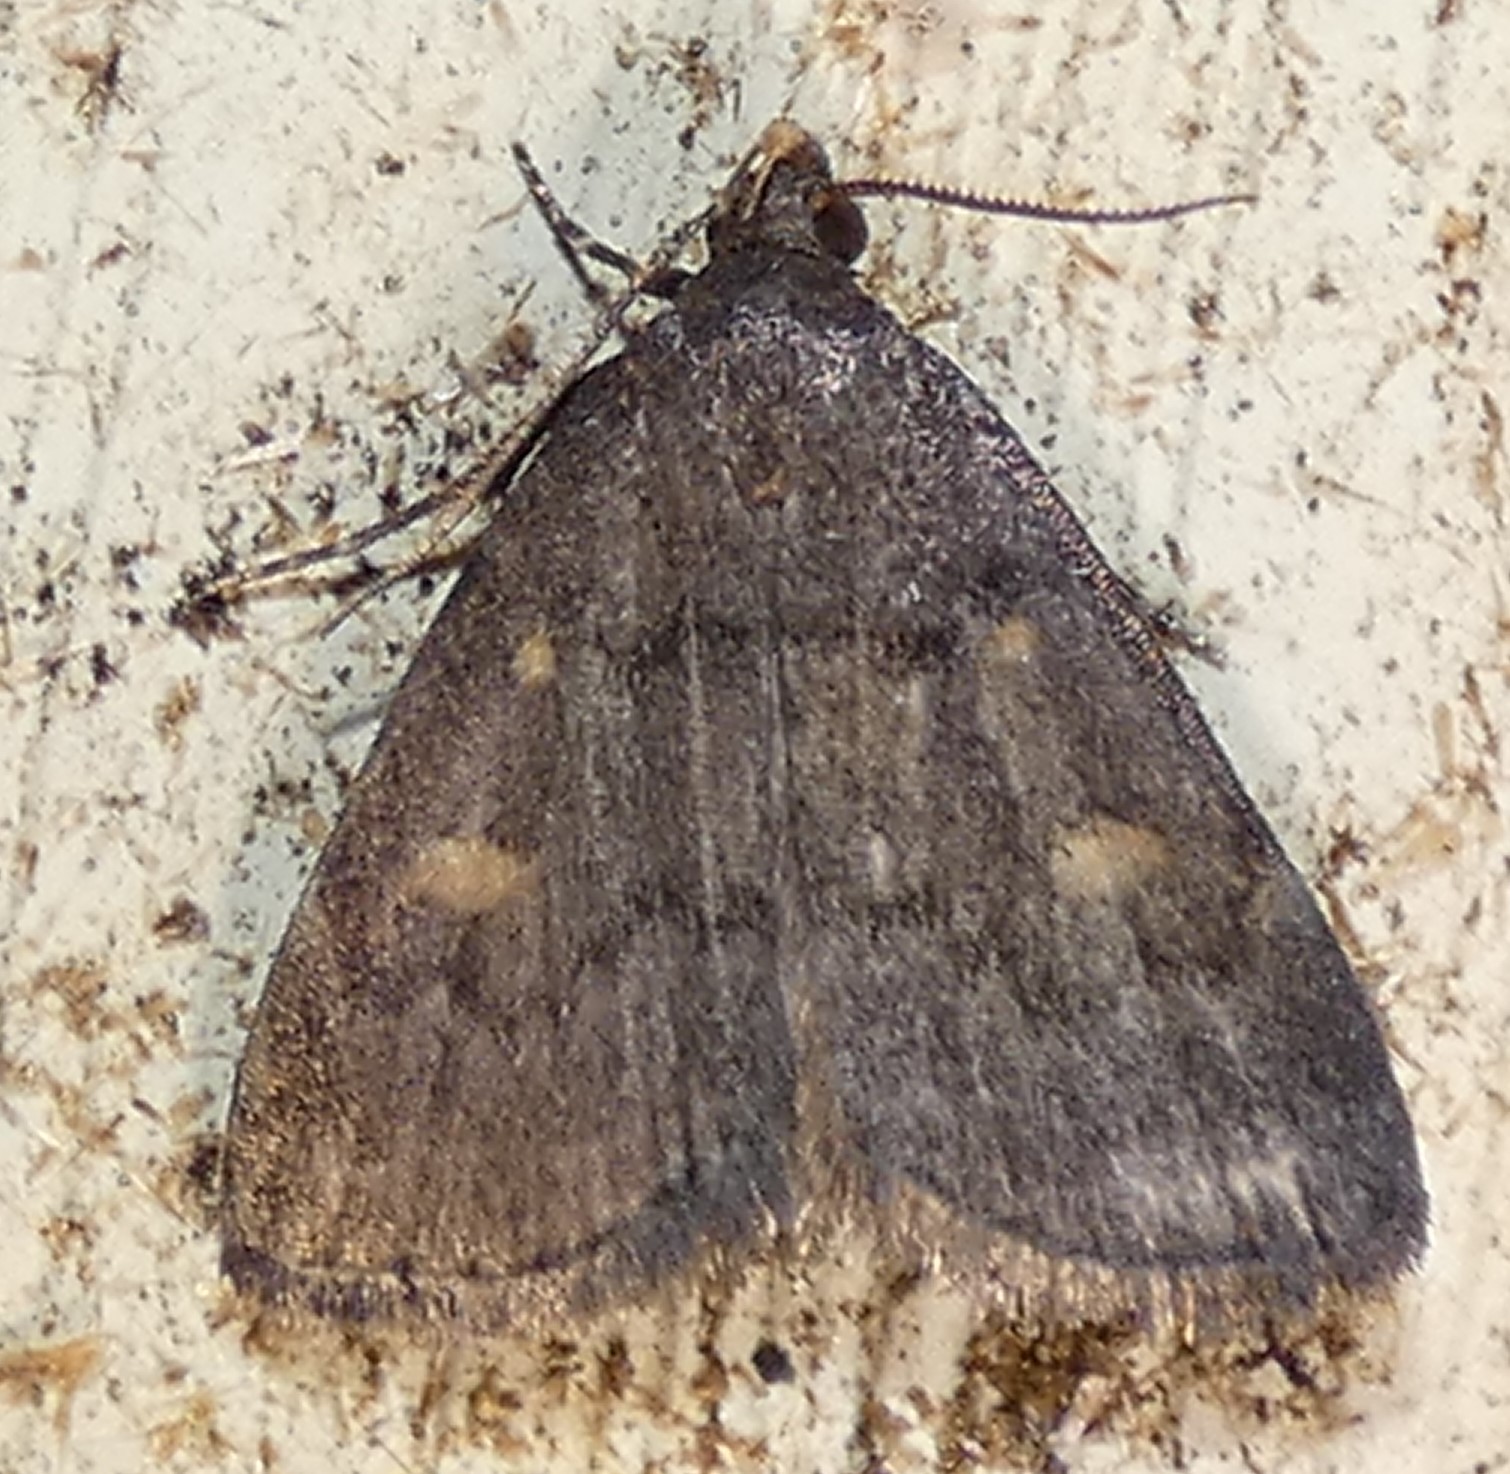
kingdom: Animalia
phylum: Arthropoda
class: Insecta
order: Lepidoptera
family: Erebidae
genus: Idia
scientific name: Idia diminuendis
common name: Orange-spotted idia moth
